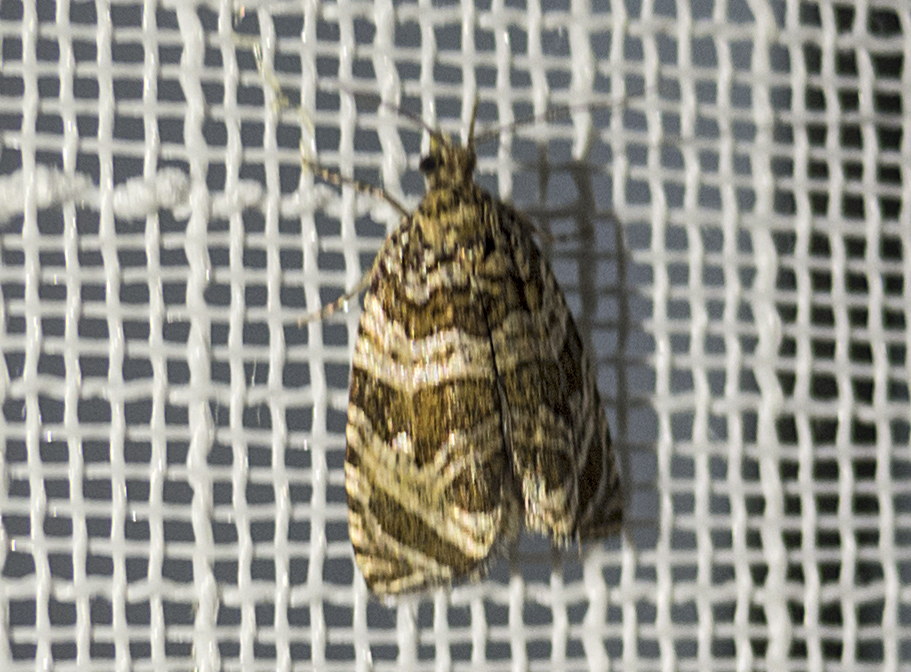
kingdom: Animalia
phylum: Arthropoda
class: Insecta
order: Lepidoptera
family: Tortricidae
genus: Syricoris
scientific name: Syricoris rivulana
